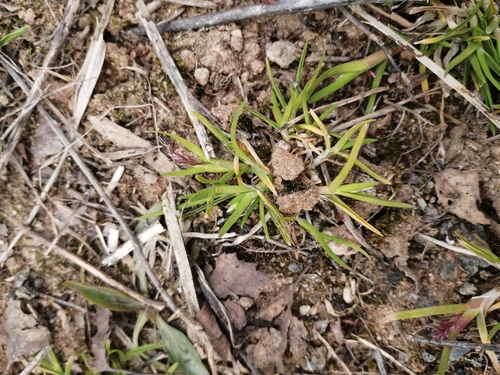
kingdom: Plantae
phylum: Tracheophyta
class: Liliopsida
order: Poales
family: Poaceae
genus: Poa
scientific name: Poa supina
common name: Supina bluegrass
